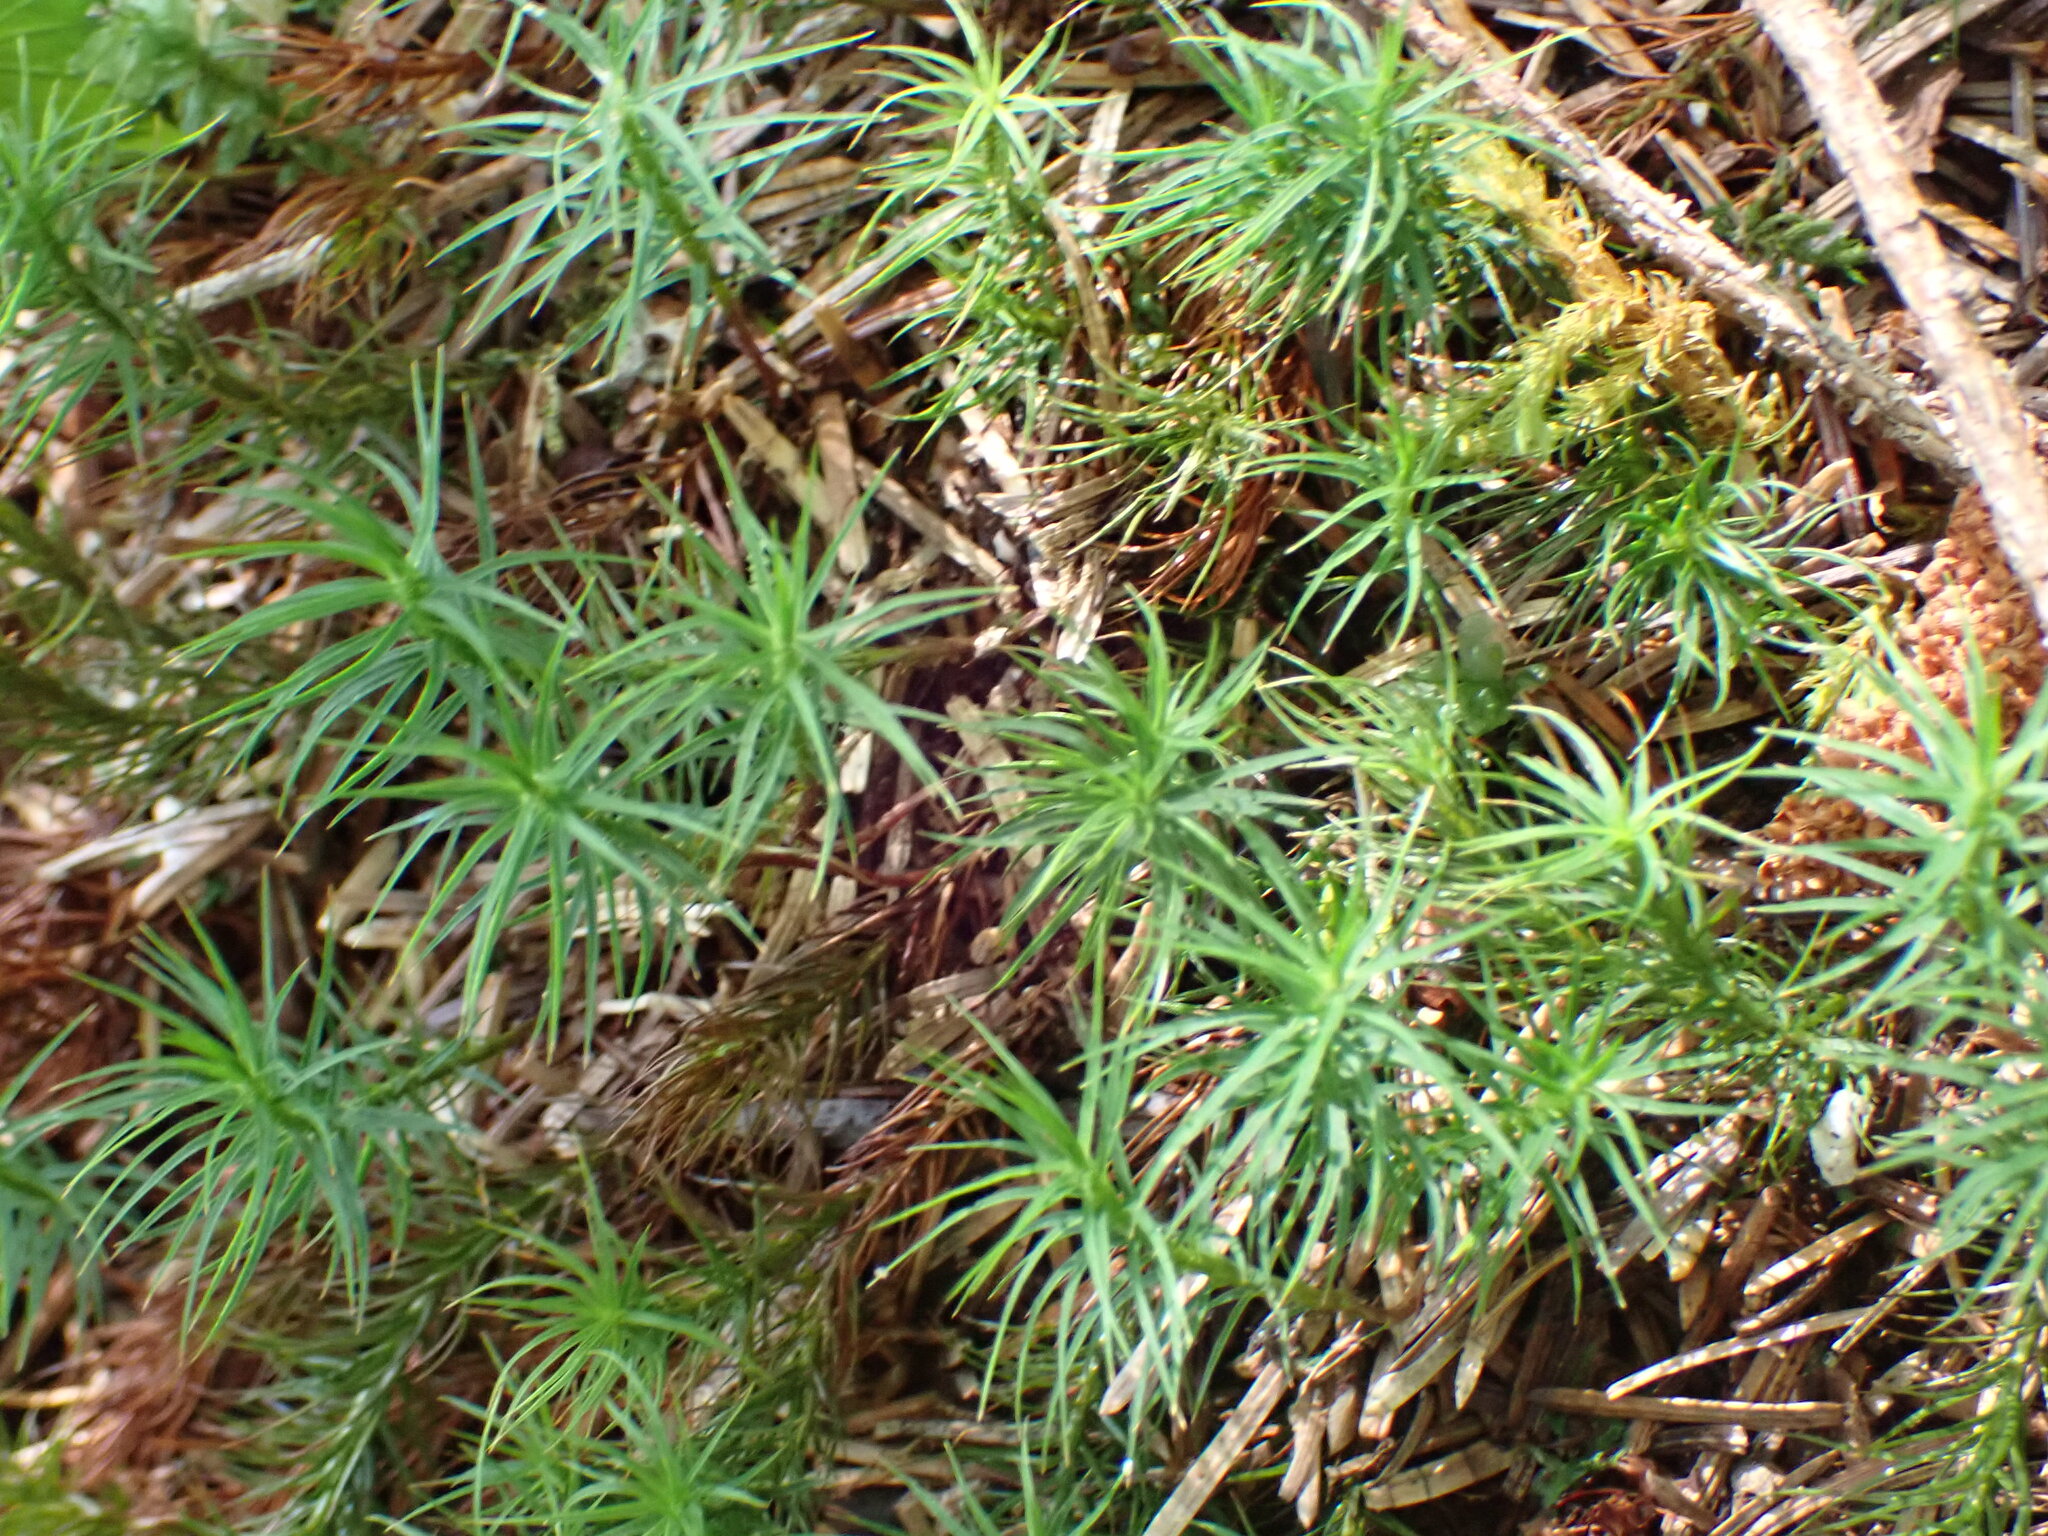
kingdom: Plantae
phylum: Bryophyta
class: Polytrichopsida
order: Polytrichales
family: Polytrichaceae
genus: Polytrichastrum
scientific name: Polytrichastrum alpinum
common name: Alpine haircap
